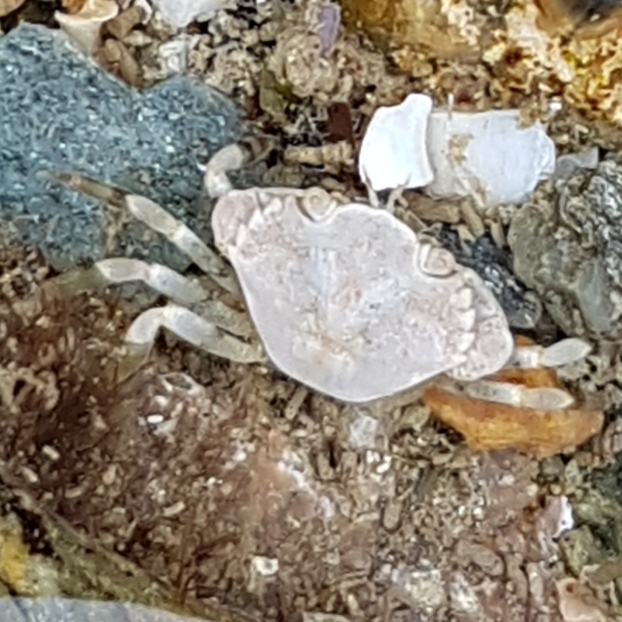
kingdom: Animalia
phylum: Arthropoda
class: Malacostraca
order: Decapoda
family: Carcinidae
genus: Carcinus
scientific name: Carcinus maenas
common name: European green crab
